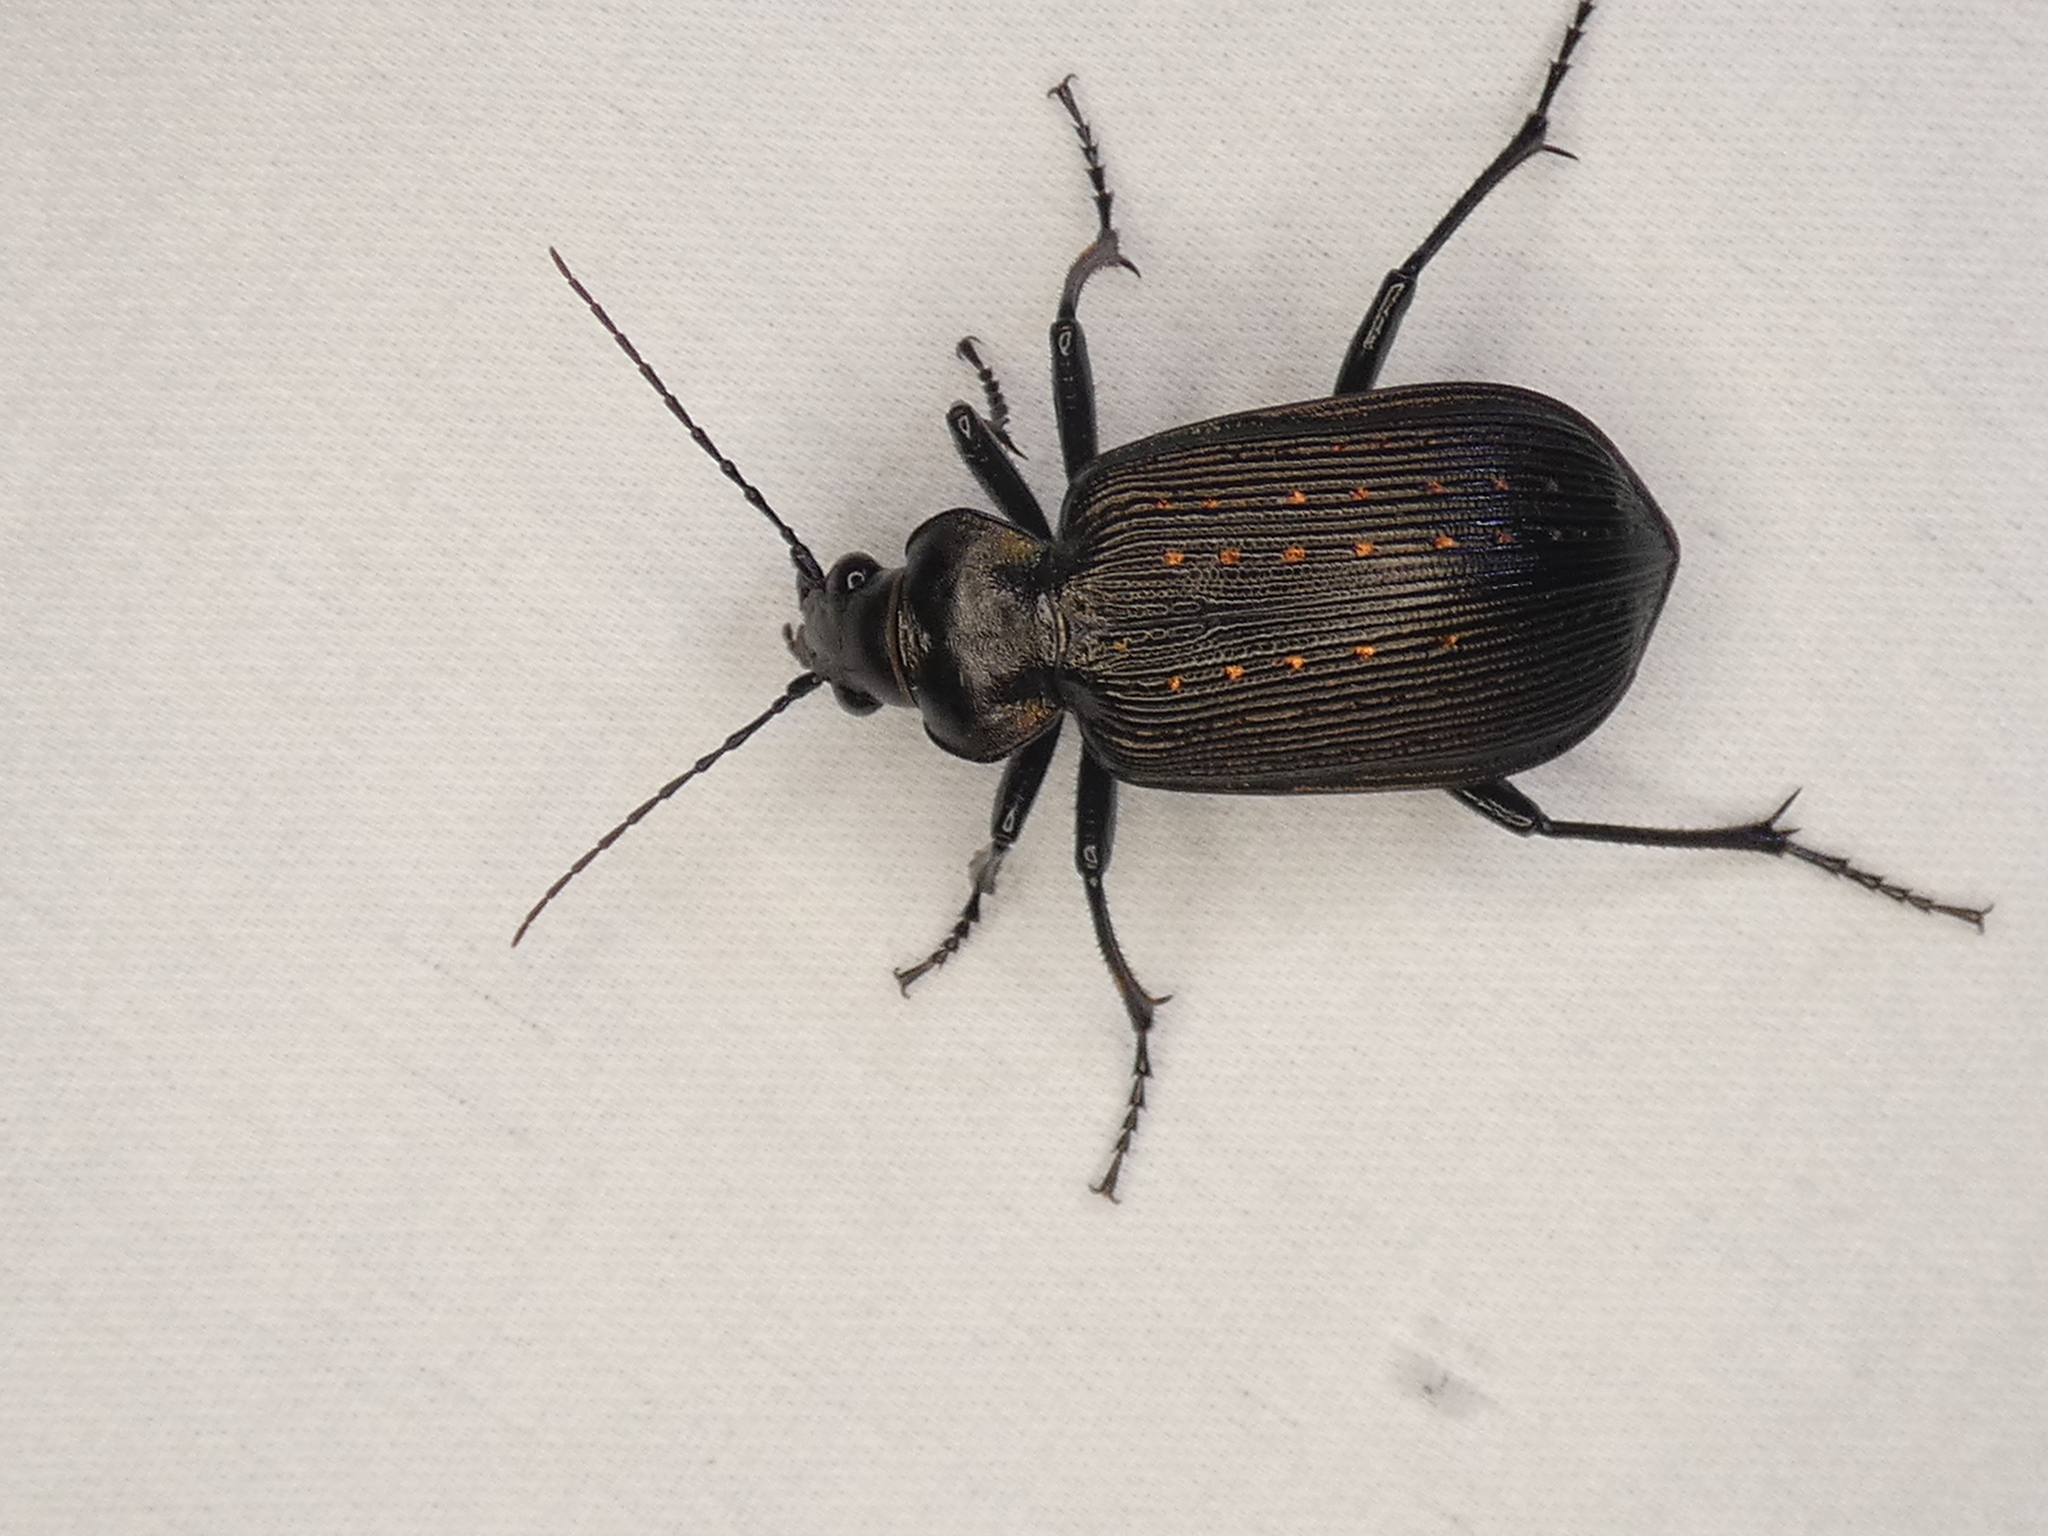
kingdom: Animalia
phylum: Arthropoda
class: Insecta
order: Coleoptera
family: Carabidae
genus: Calosoma
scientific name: Calosoma sayi
